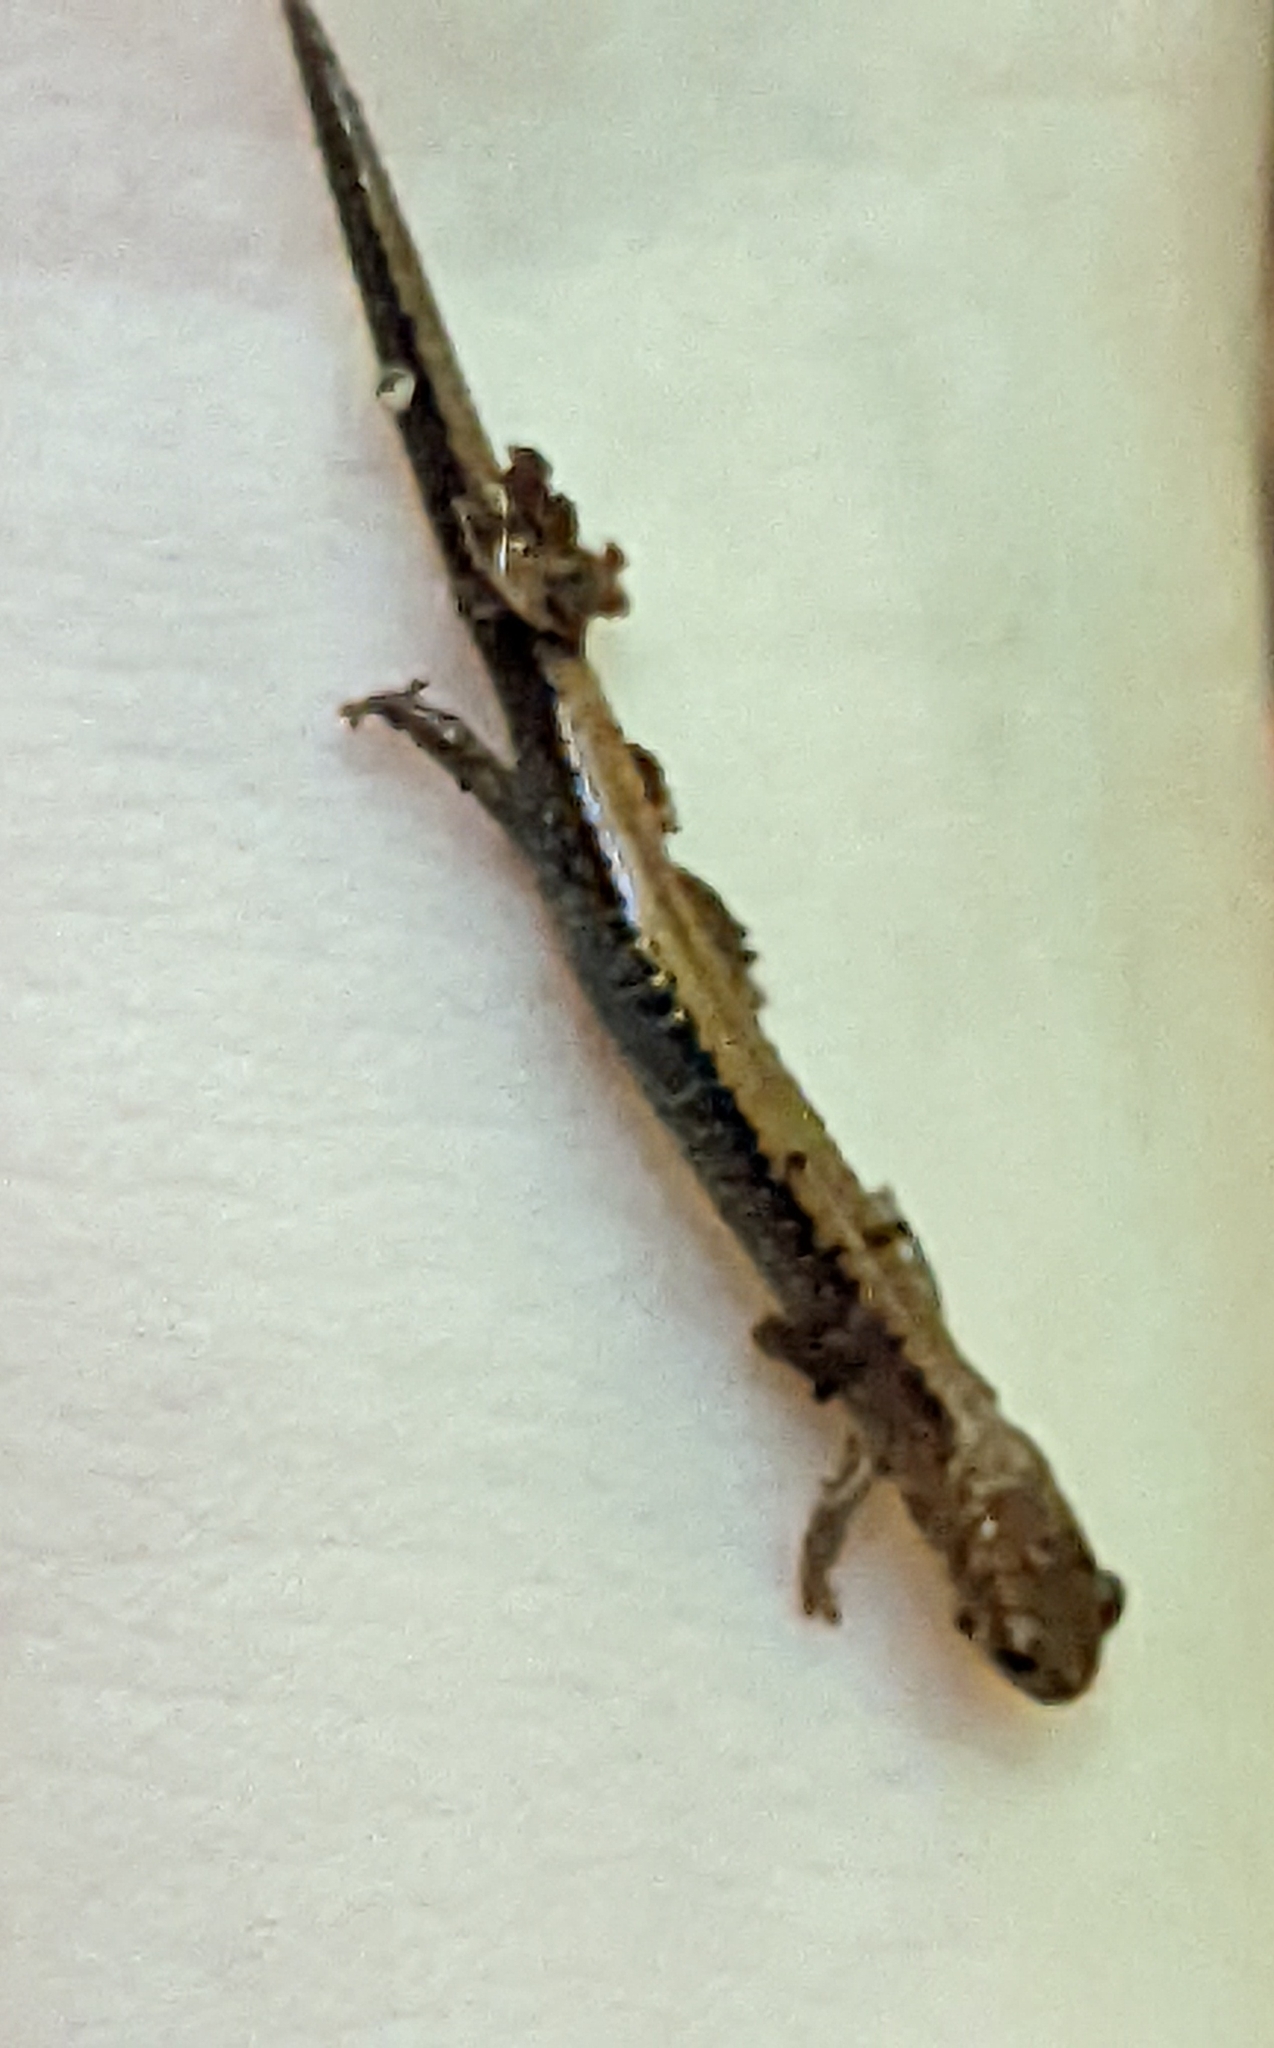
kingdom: Animalia
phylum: Chordata
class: Amphibia
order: Caudata
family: Plethodontidae
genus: Plethodon
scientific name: Plethodon cinereus
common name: Redback salamander
